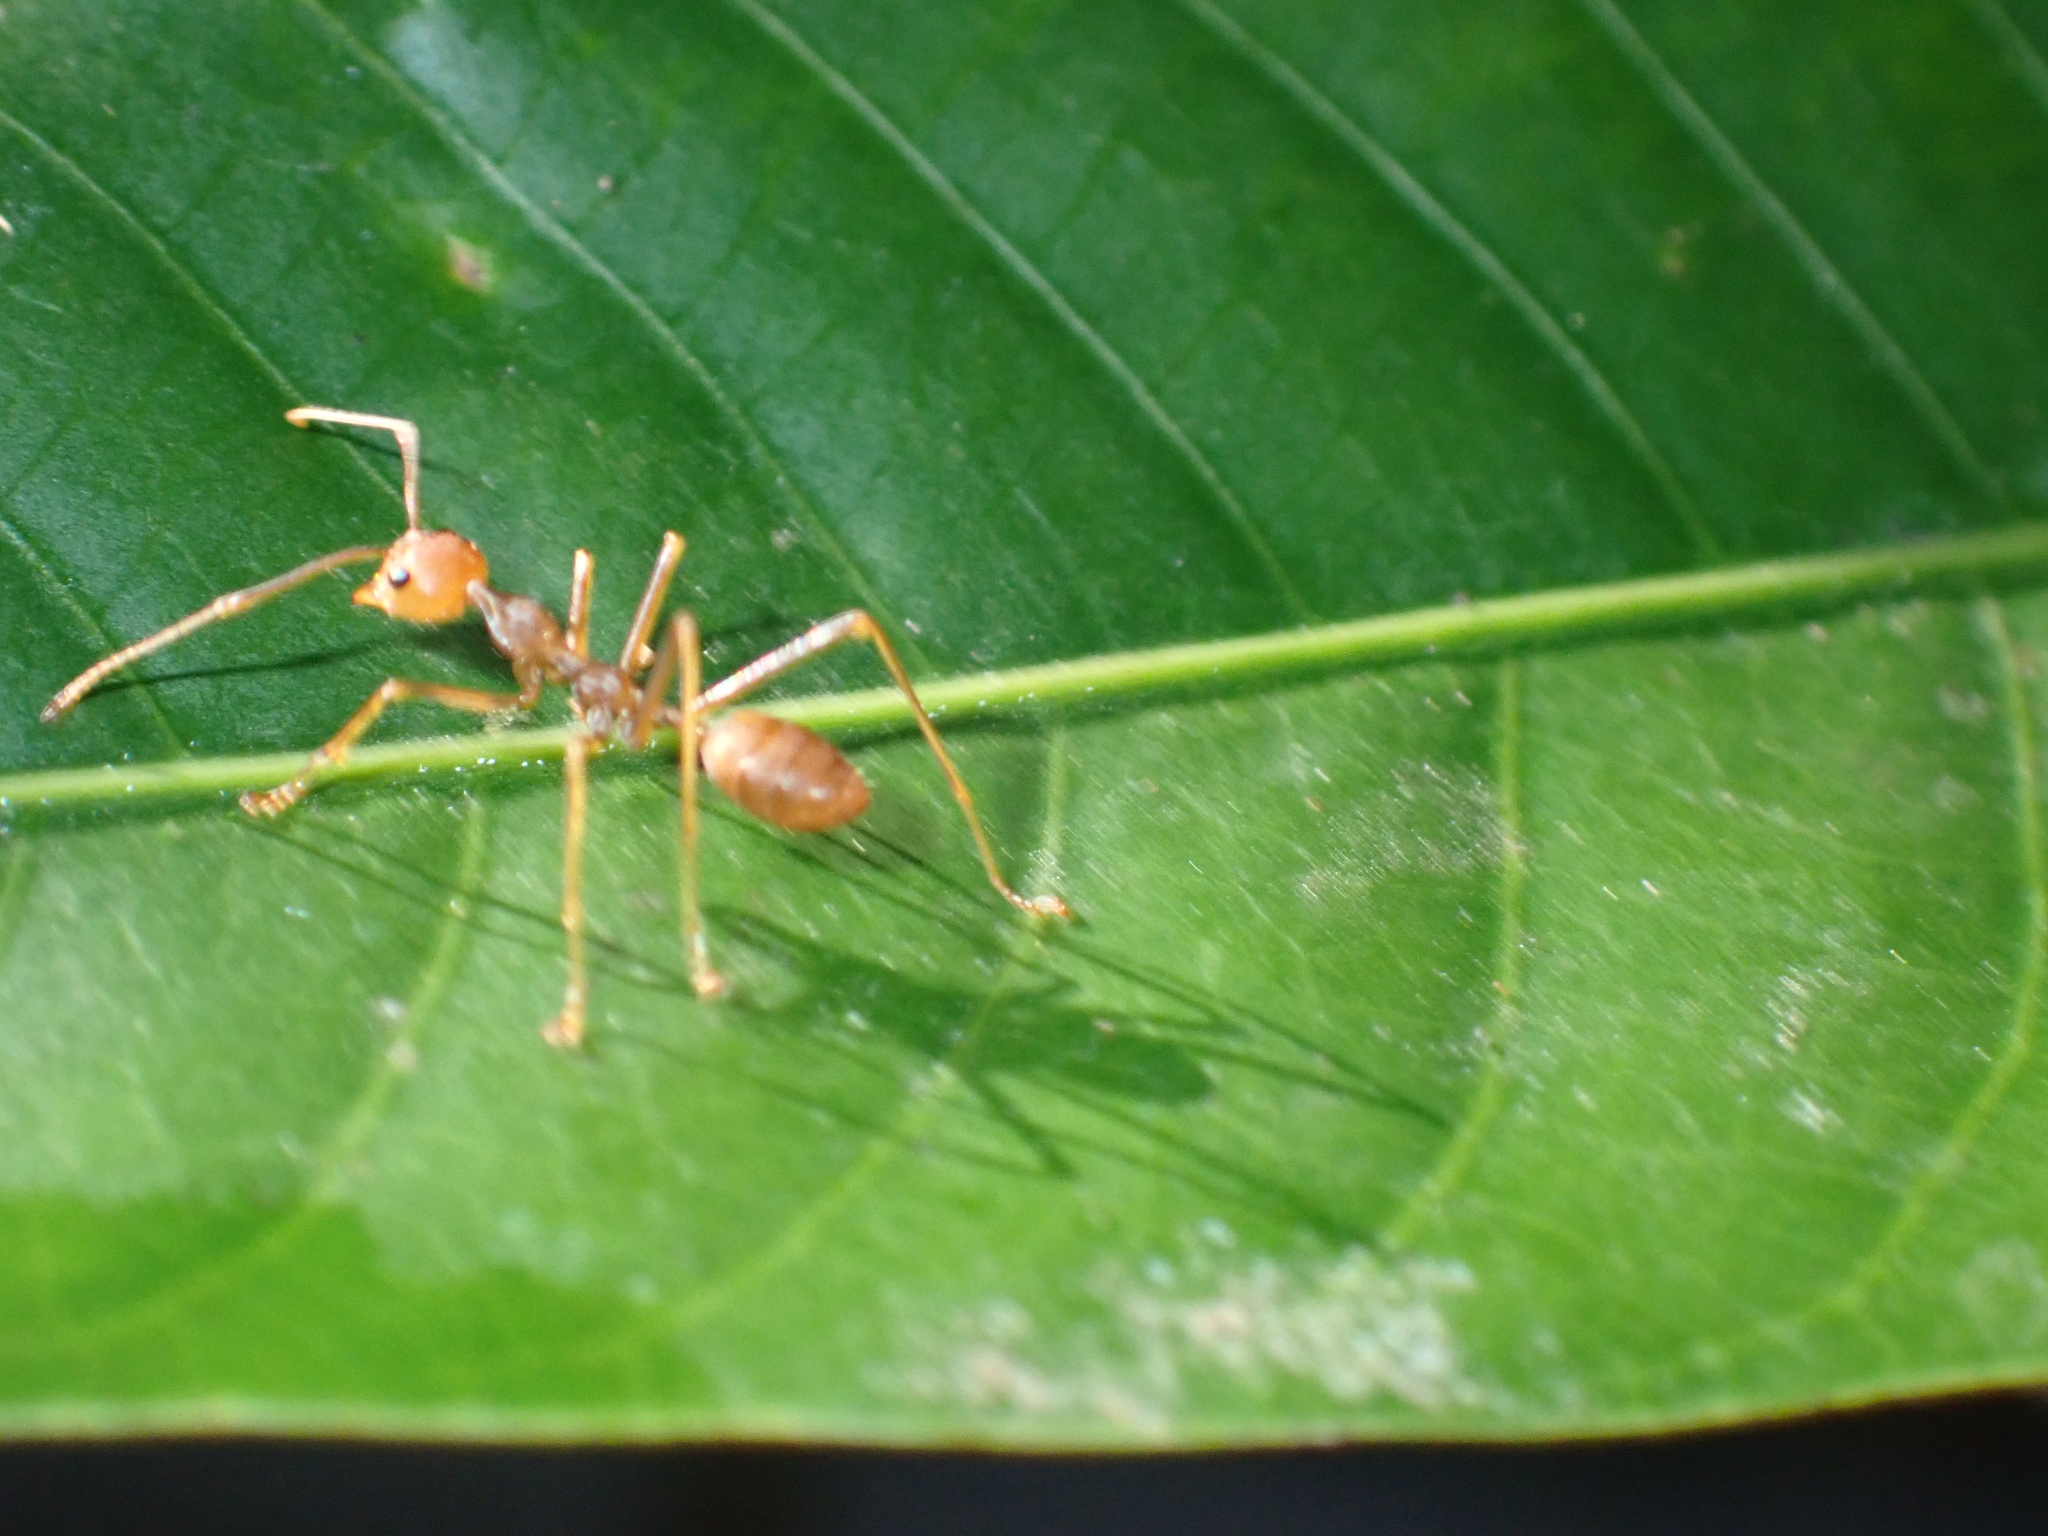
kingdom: Animalia
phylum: Arthropoda
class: Insecta
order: Hymenoptera
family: Formicidae
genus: Oecophylla
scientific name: Oecophylla smaragdina
